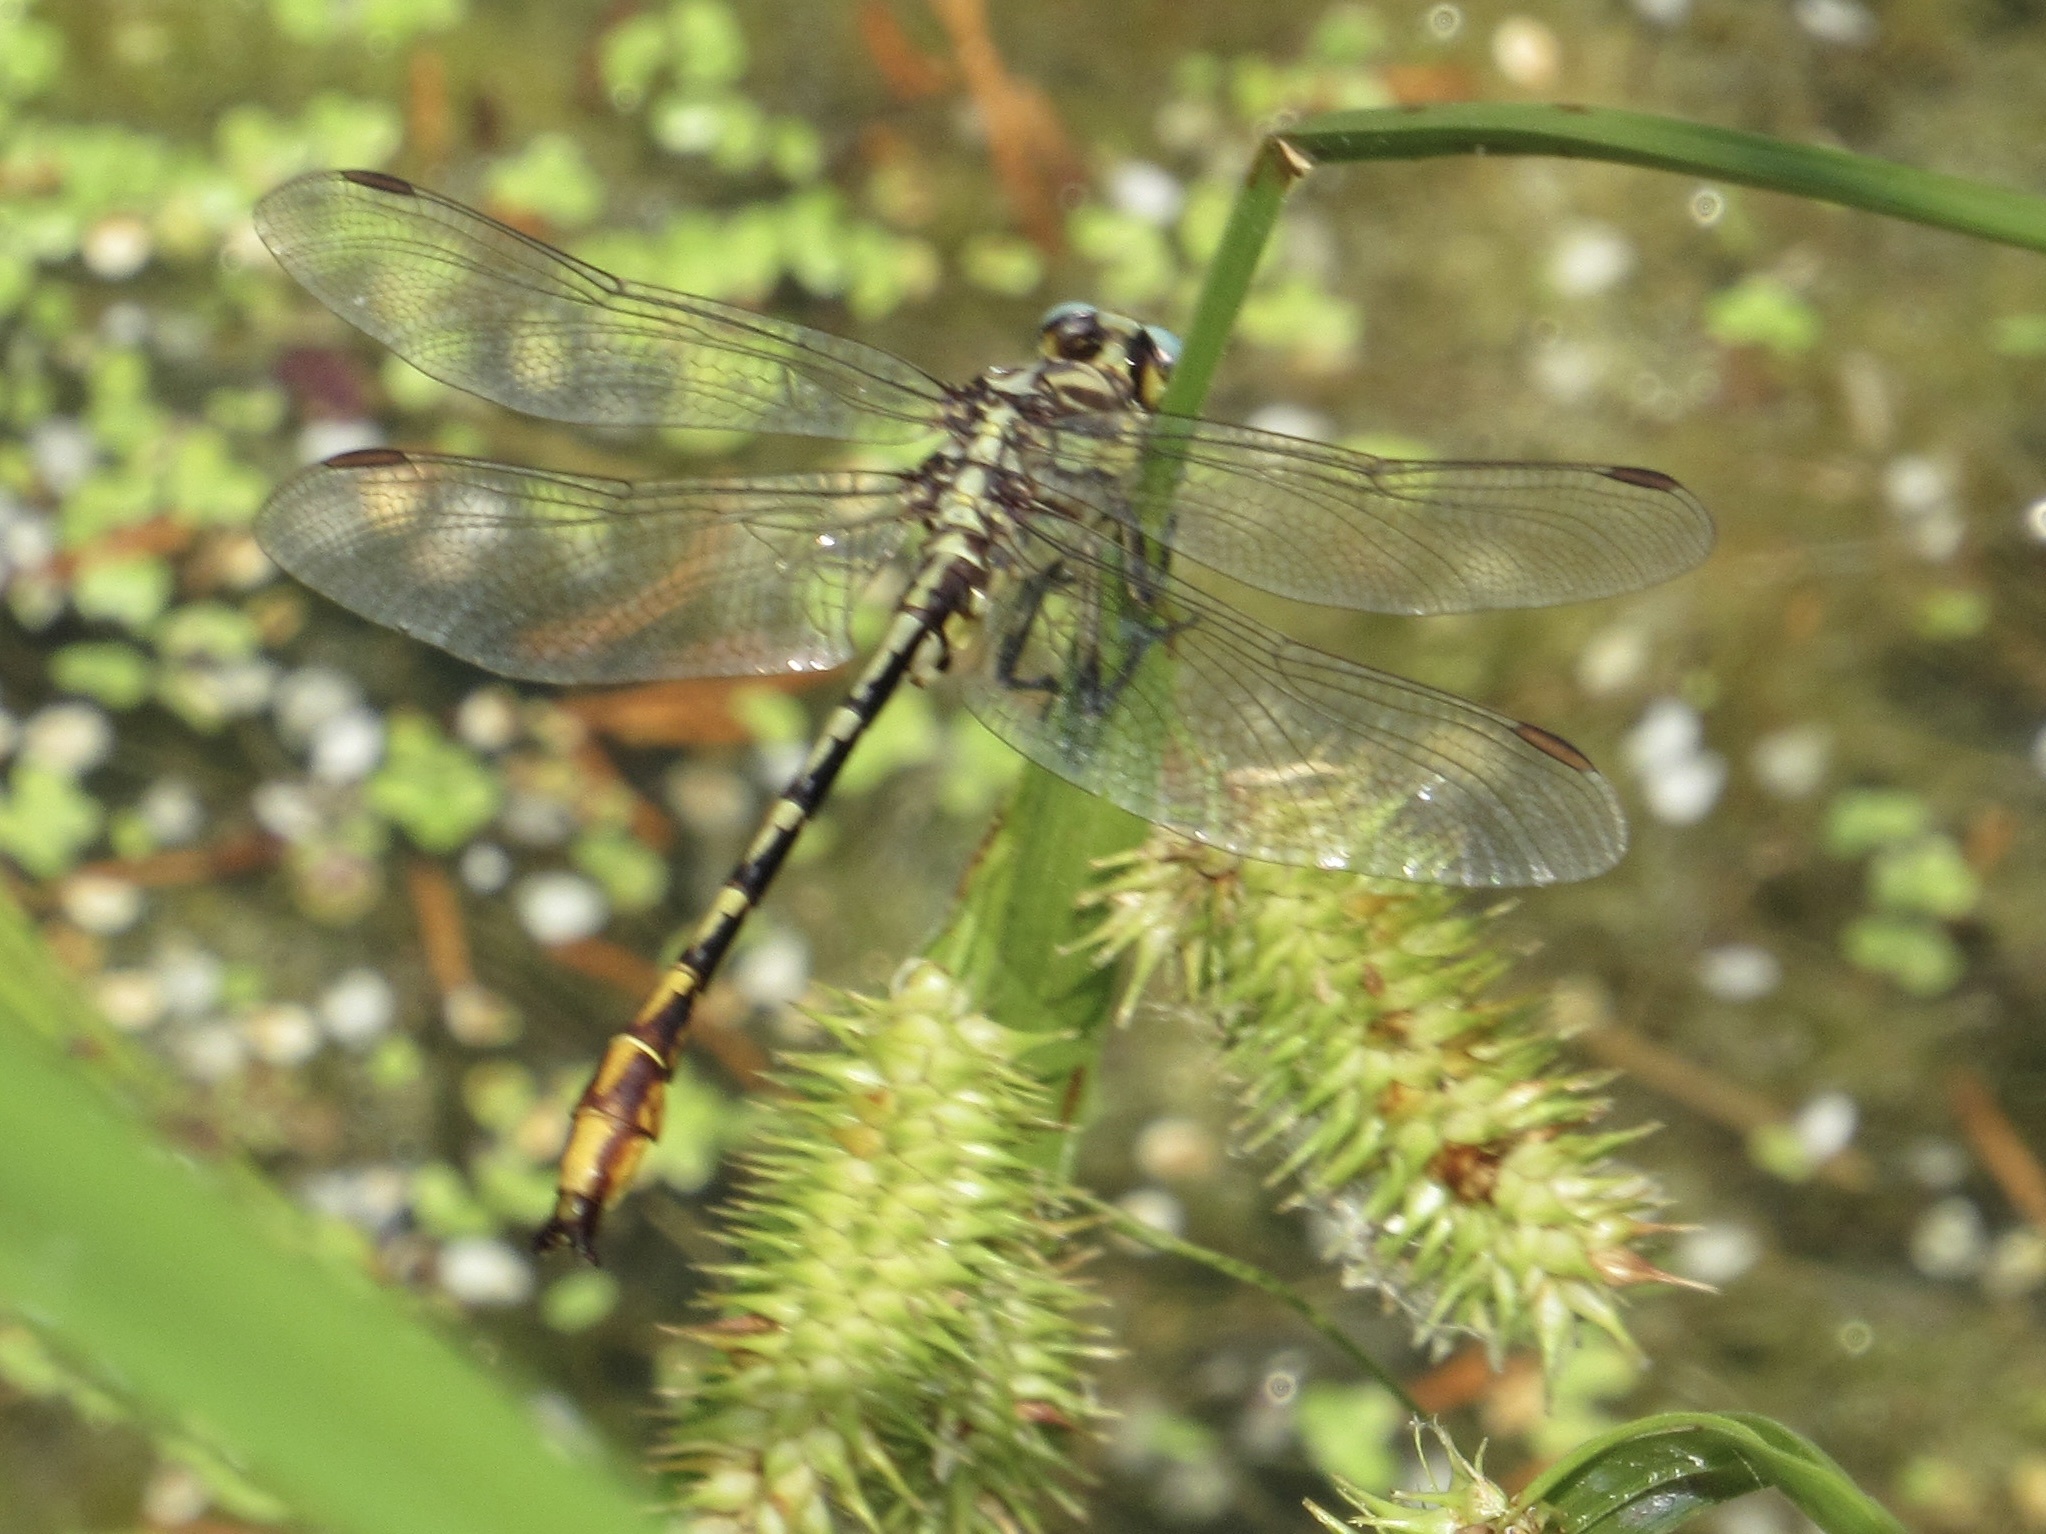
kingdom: Animalia
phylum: Arthropoda
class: Insecta
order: Odonata
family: Gomphidae
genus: Phanogomphus
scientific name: Phanogomphus militaris
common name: Sulphur-tipped clubtail
